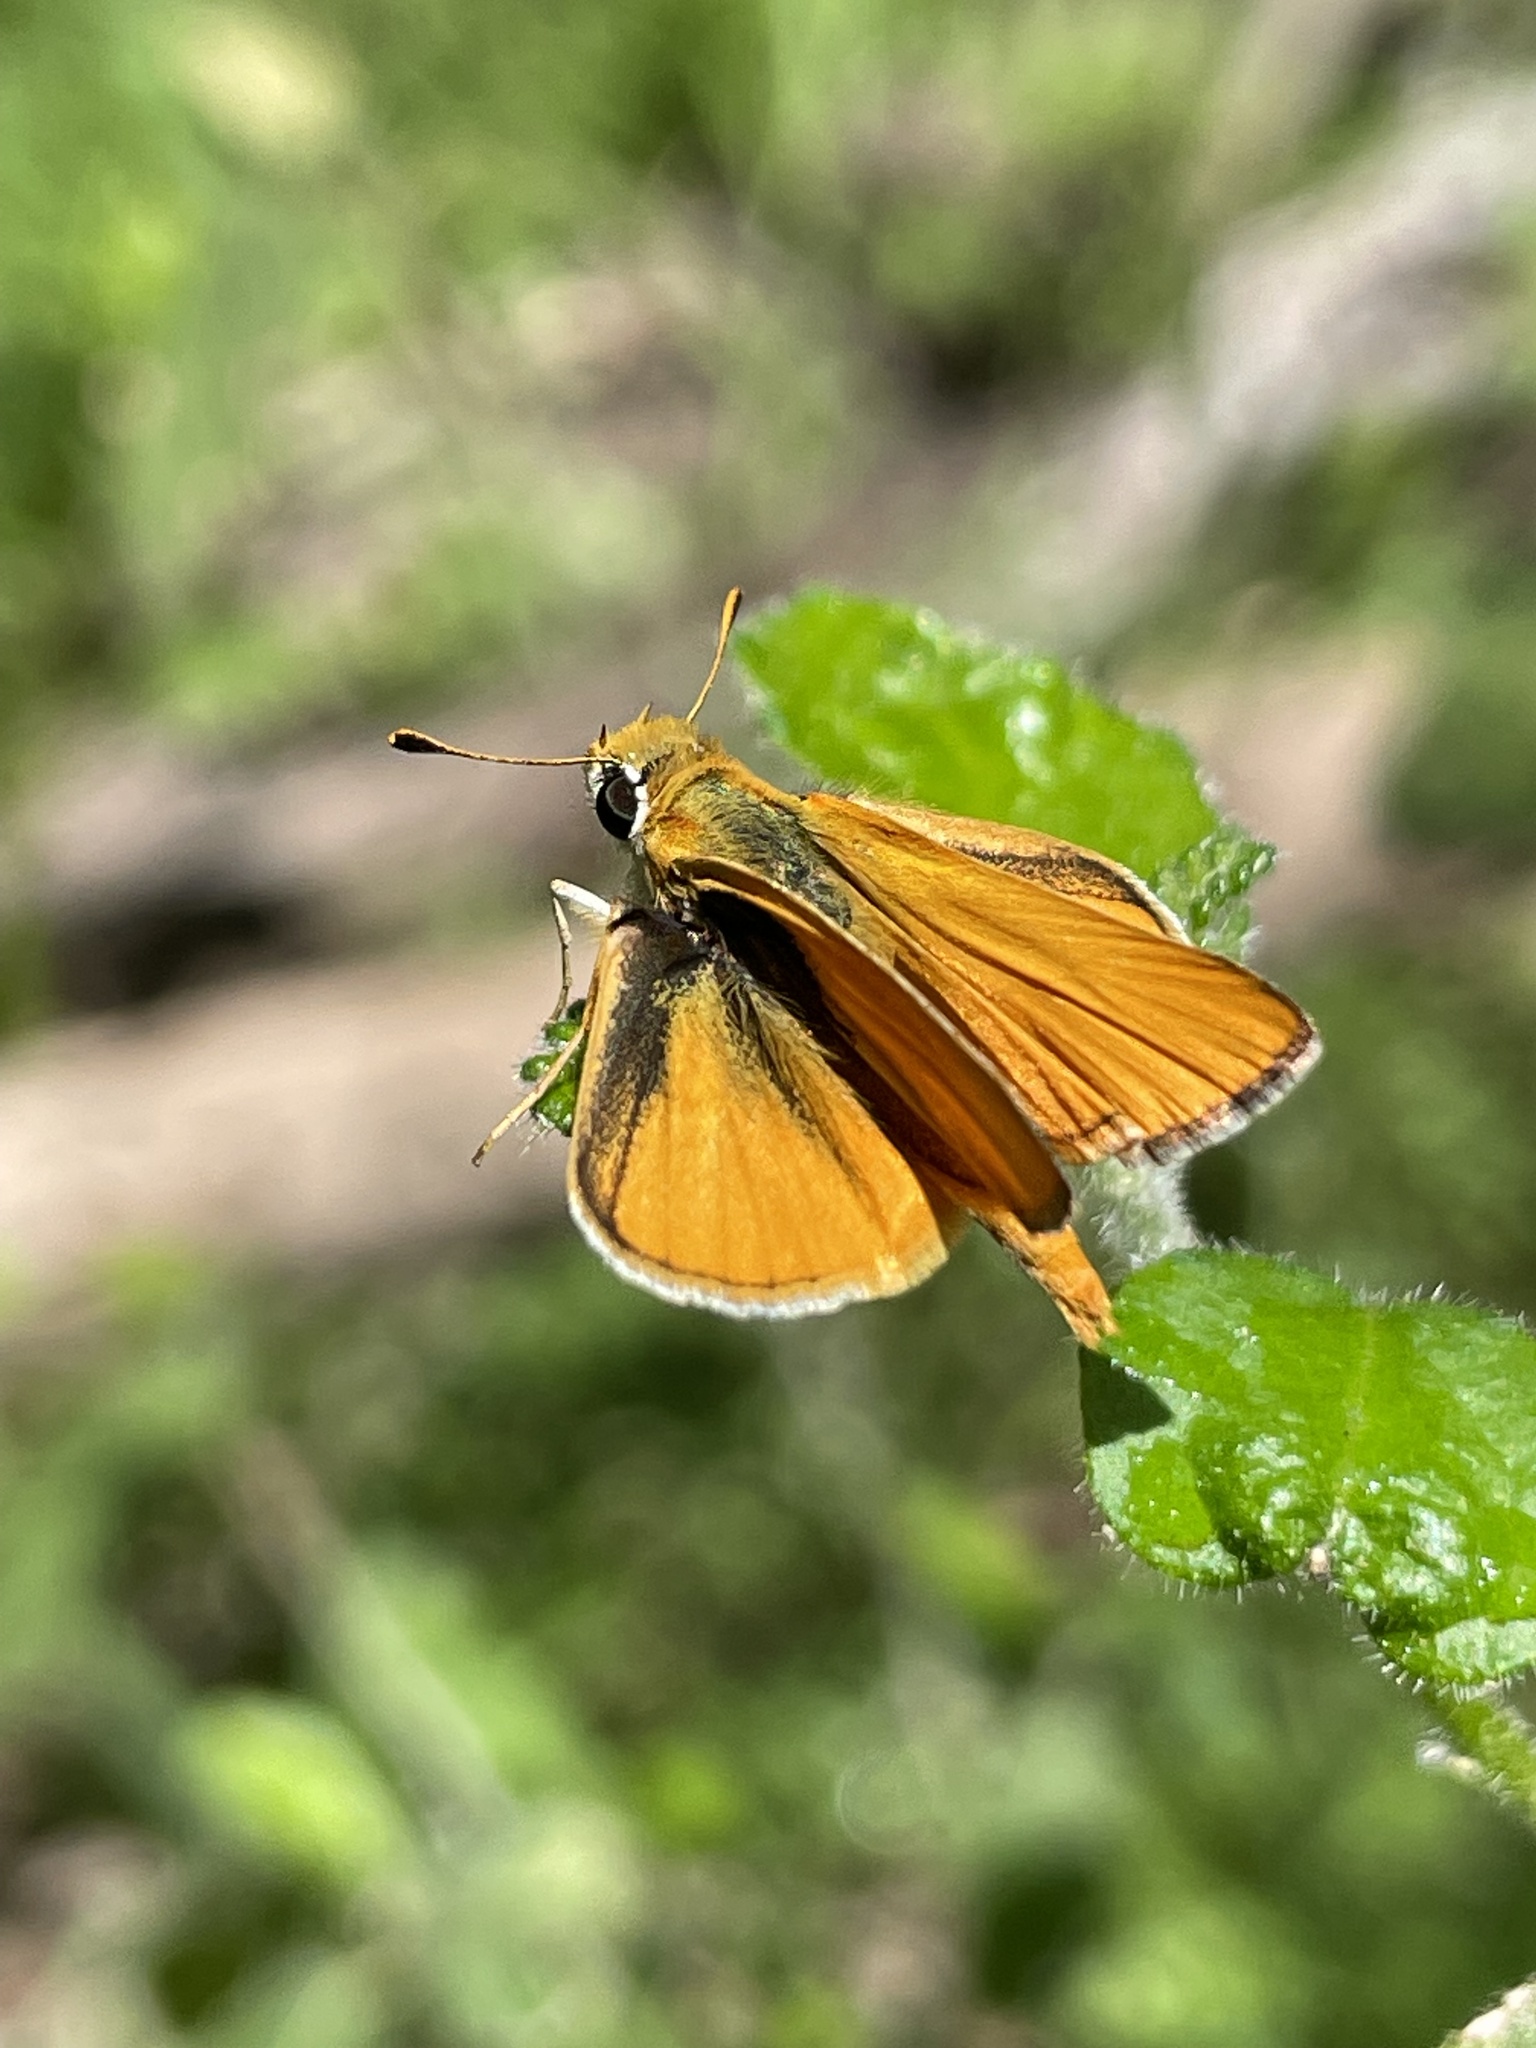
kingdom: Animalia
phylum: Arthropoda
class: Insecta
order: Lepidoptera
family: Hesperiidae
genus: Copaeodes
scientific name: Copaeodes aurantiaca
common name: Orange skipperling
